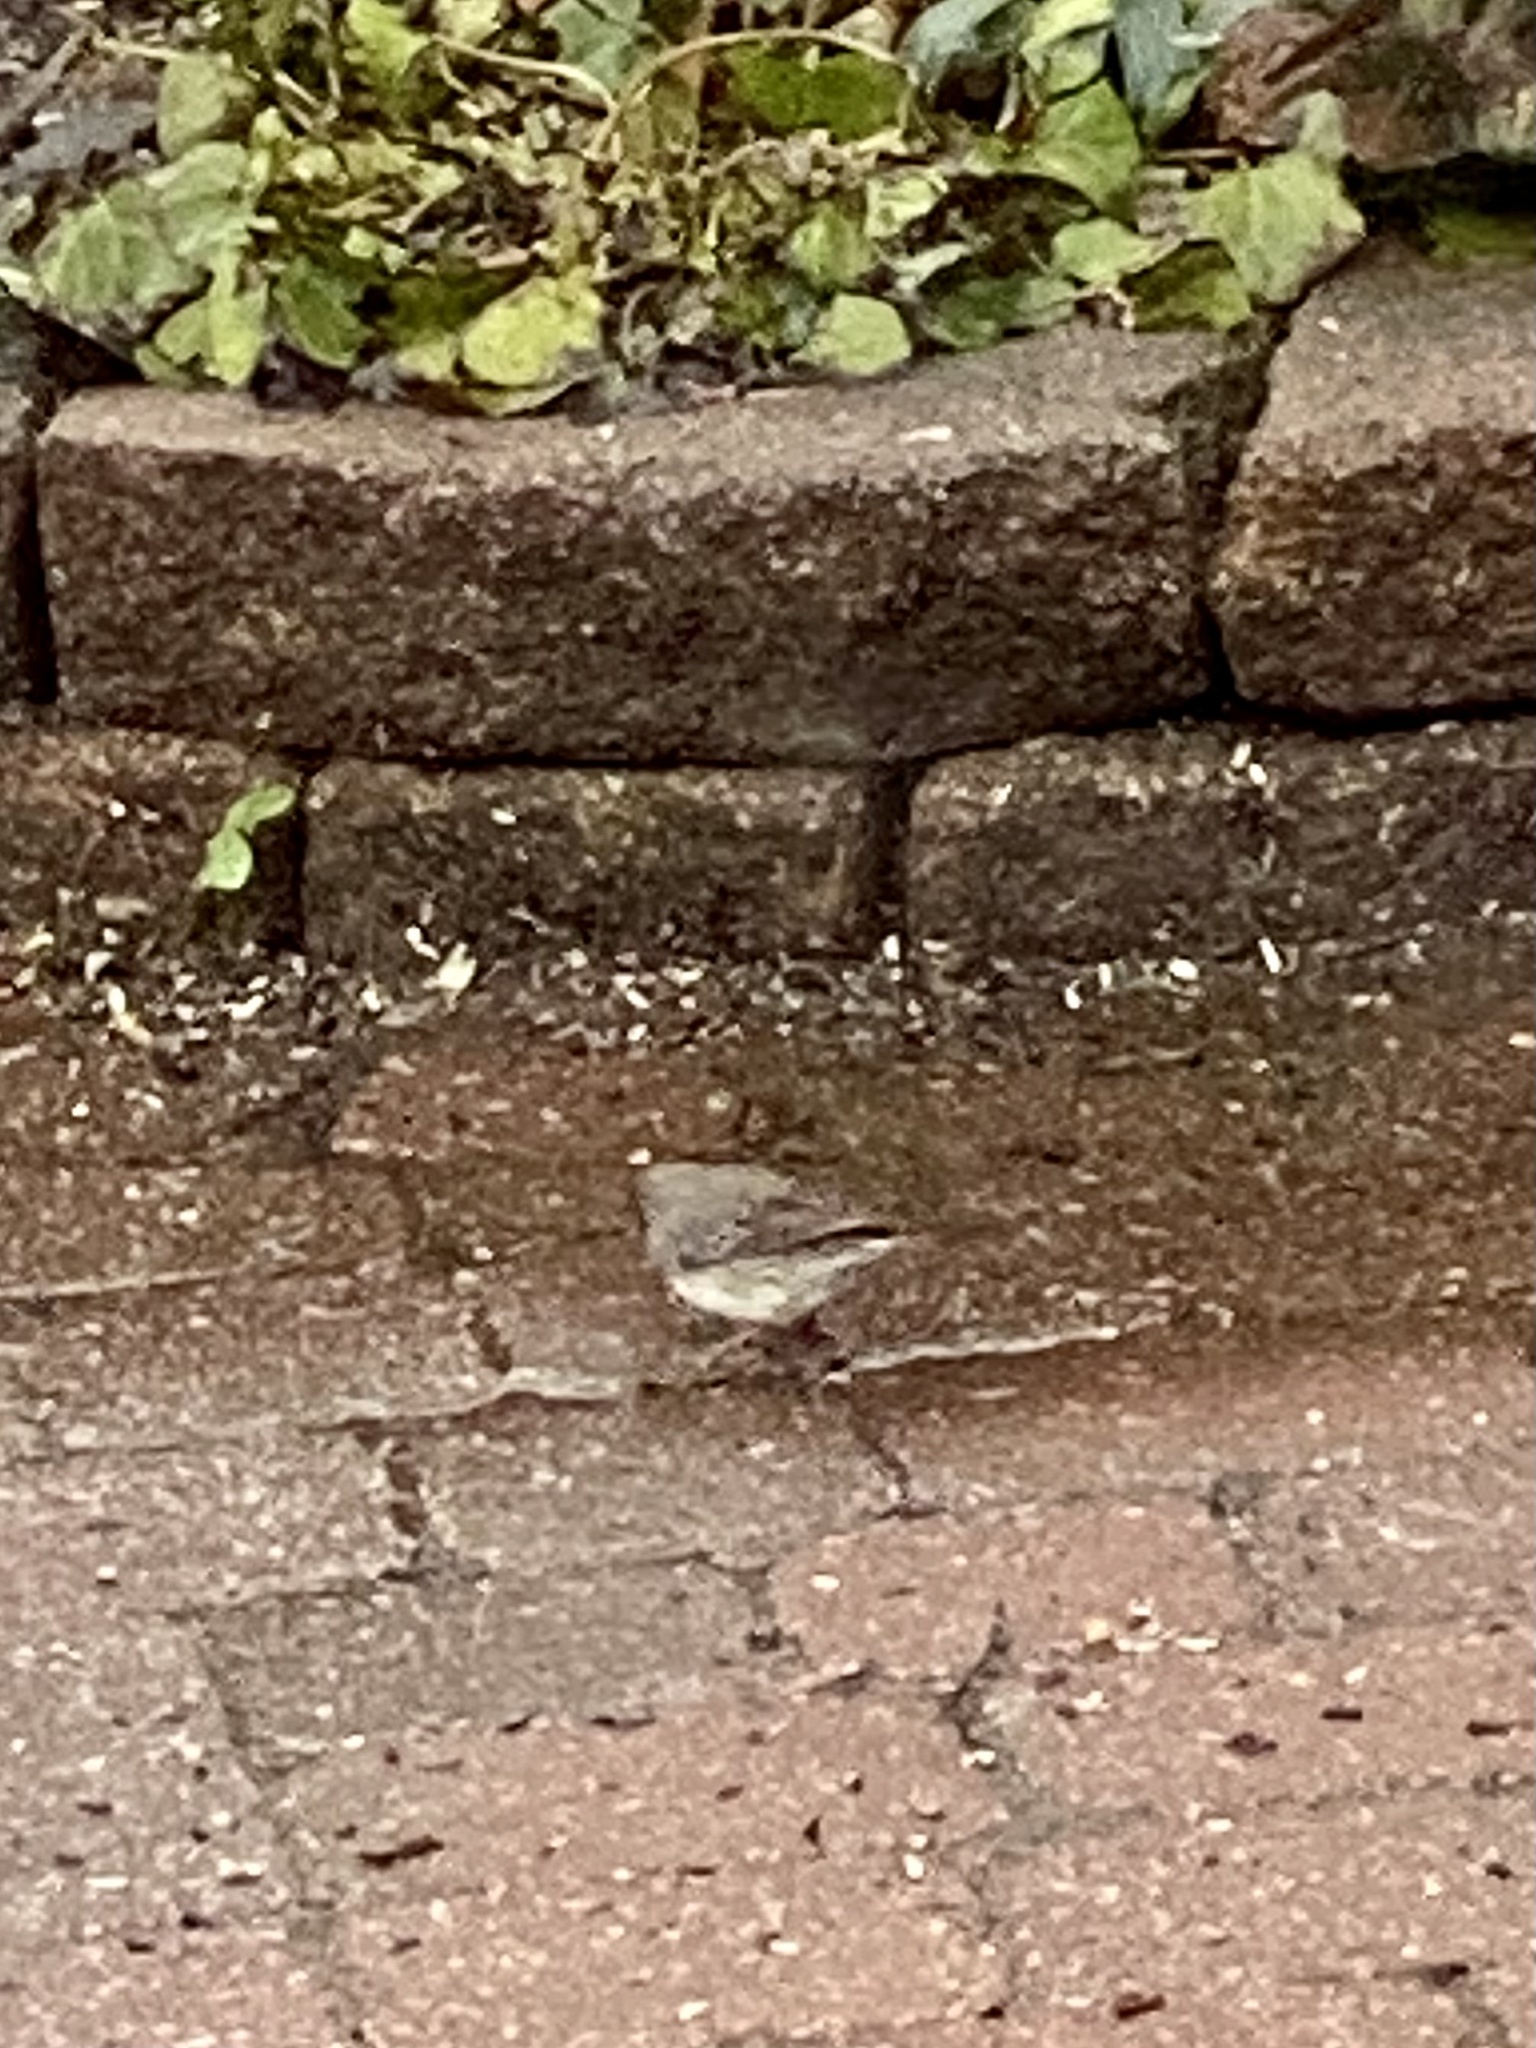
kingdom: Animalia
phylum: Chordata
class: Aves
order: Passeriformes
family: Passerellidae
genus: Junco
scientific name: Junco hyemalis
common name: Dark-eyed junco
